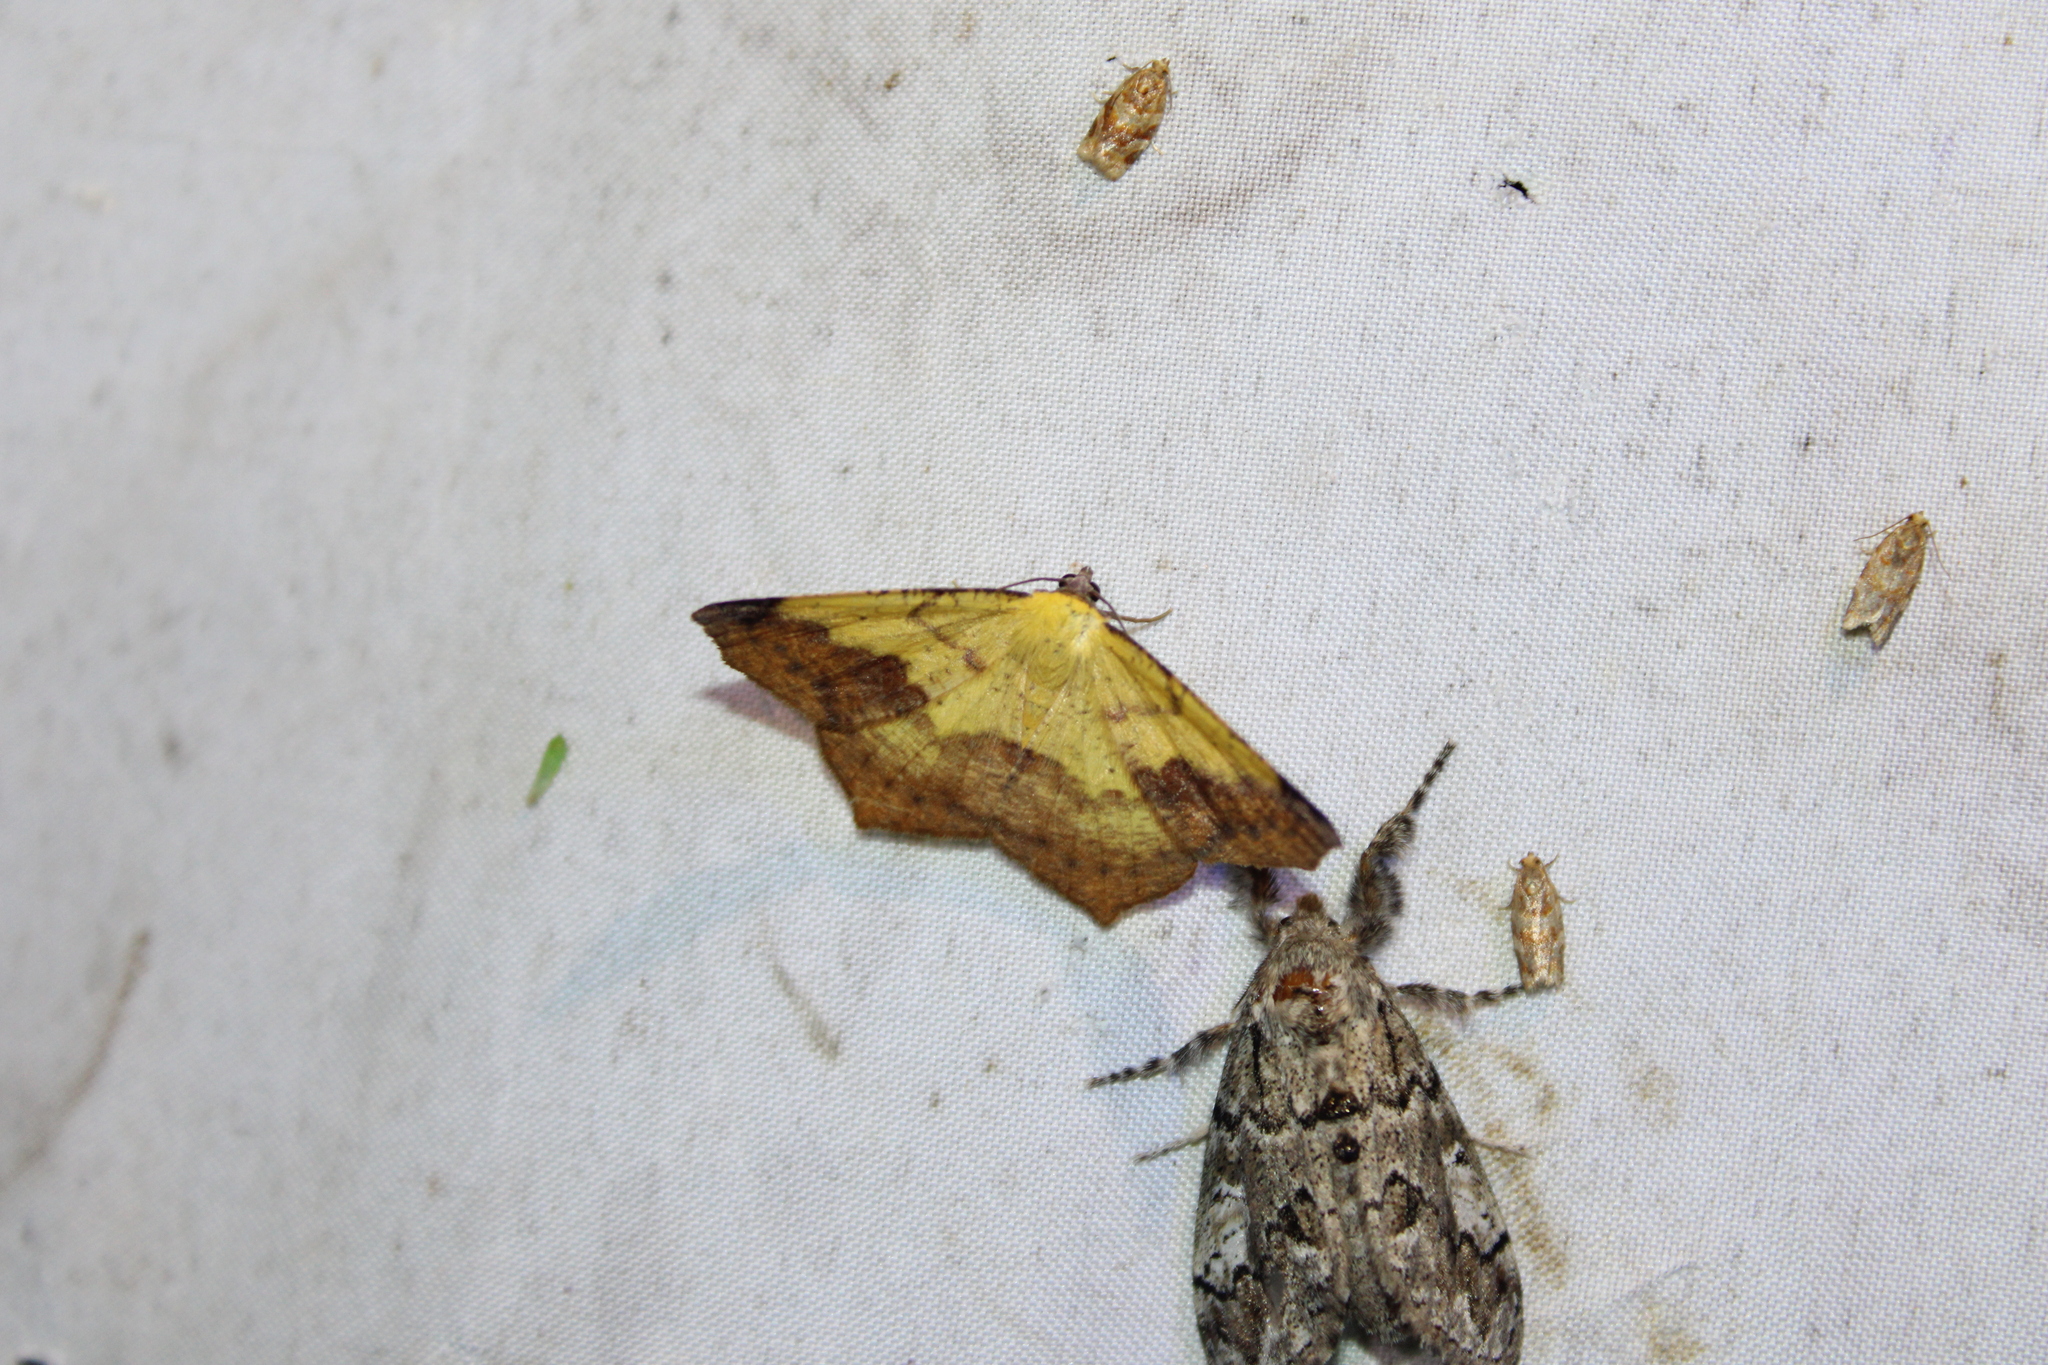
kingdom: Animalia
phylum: Arthropoda
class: Insecta
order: Lepidoptera
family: Geometridae
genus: Antepione
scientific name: Antepione thisoaria
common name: Variable antipione
